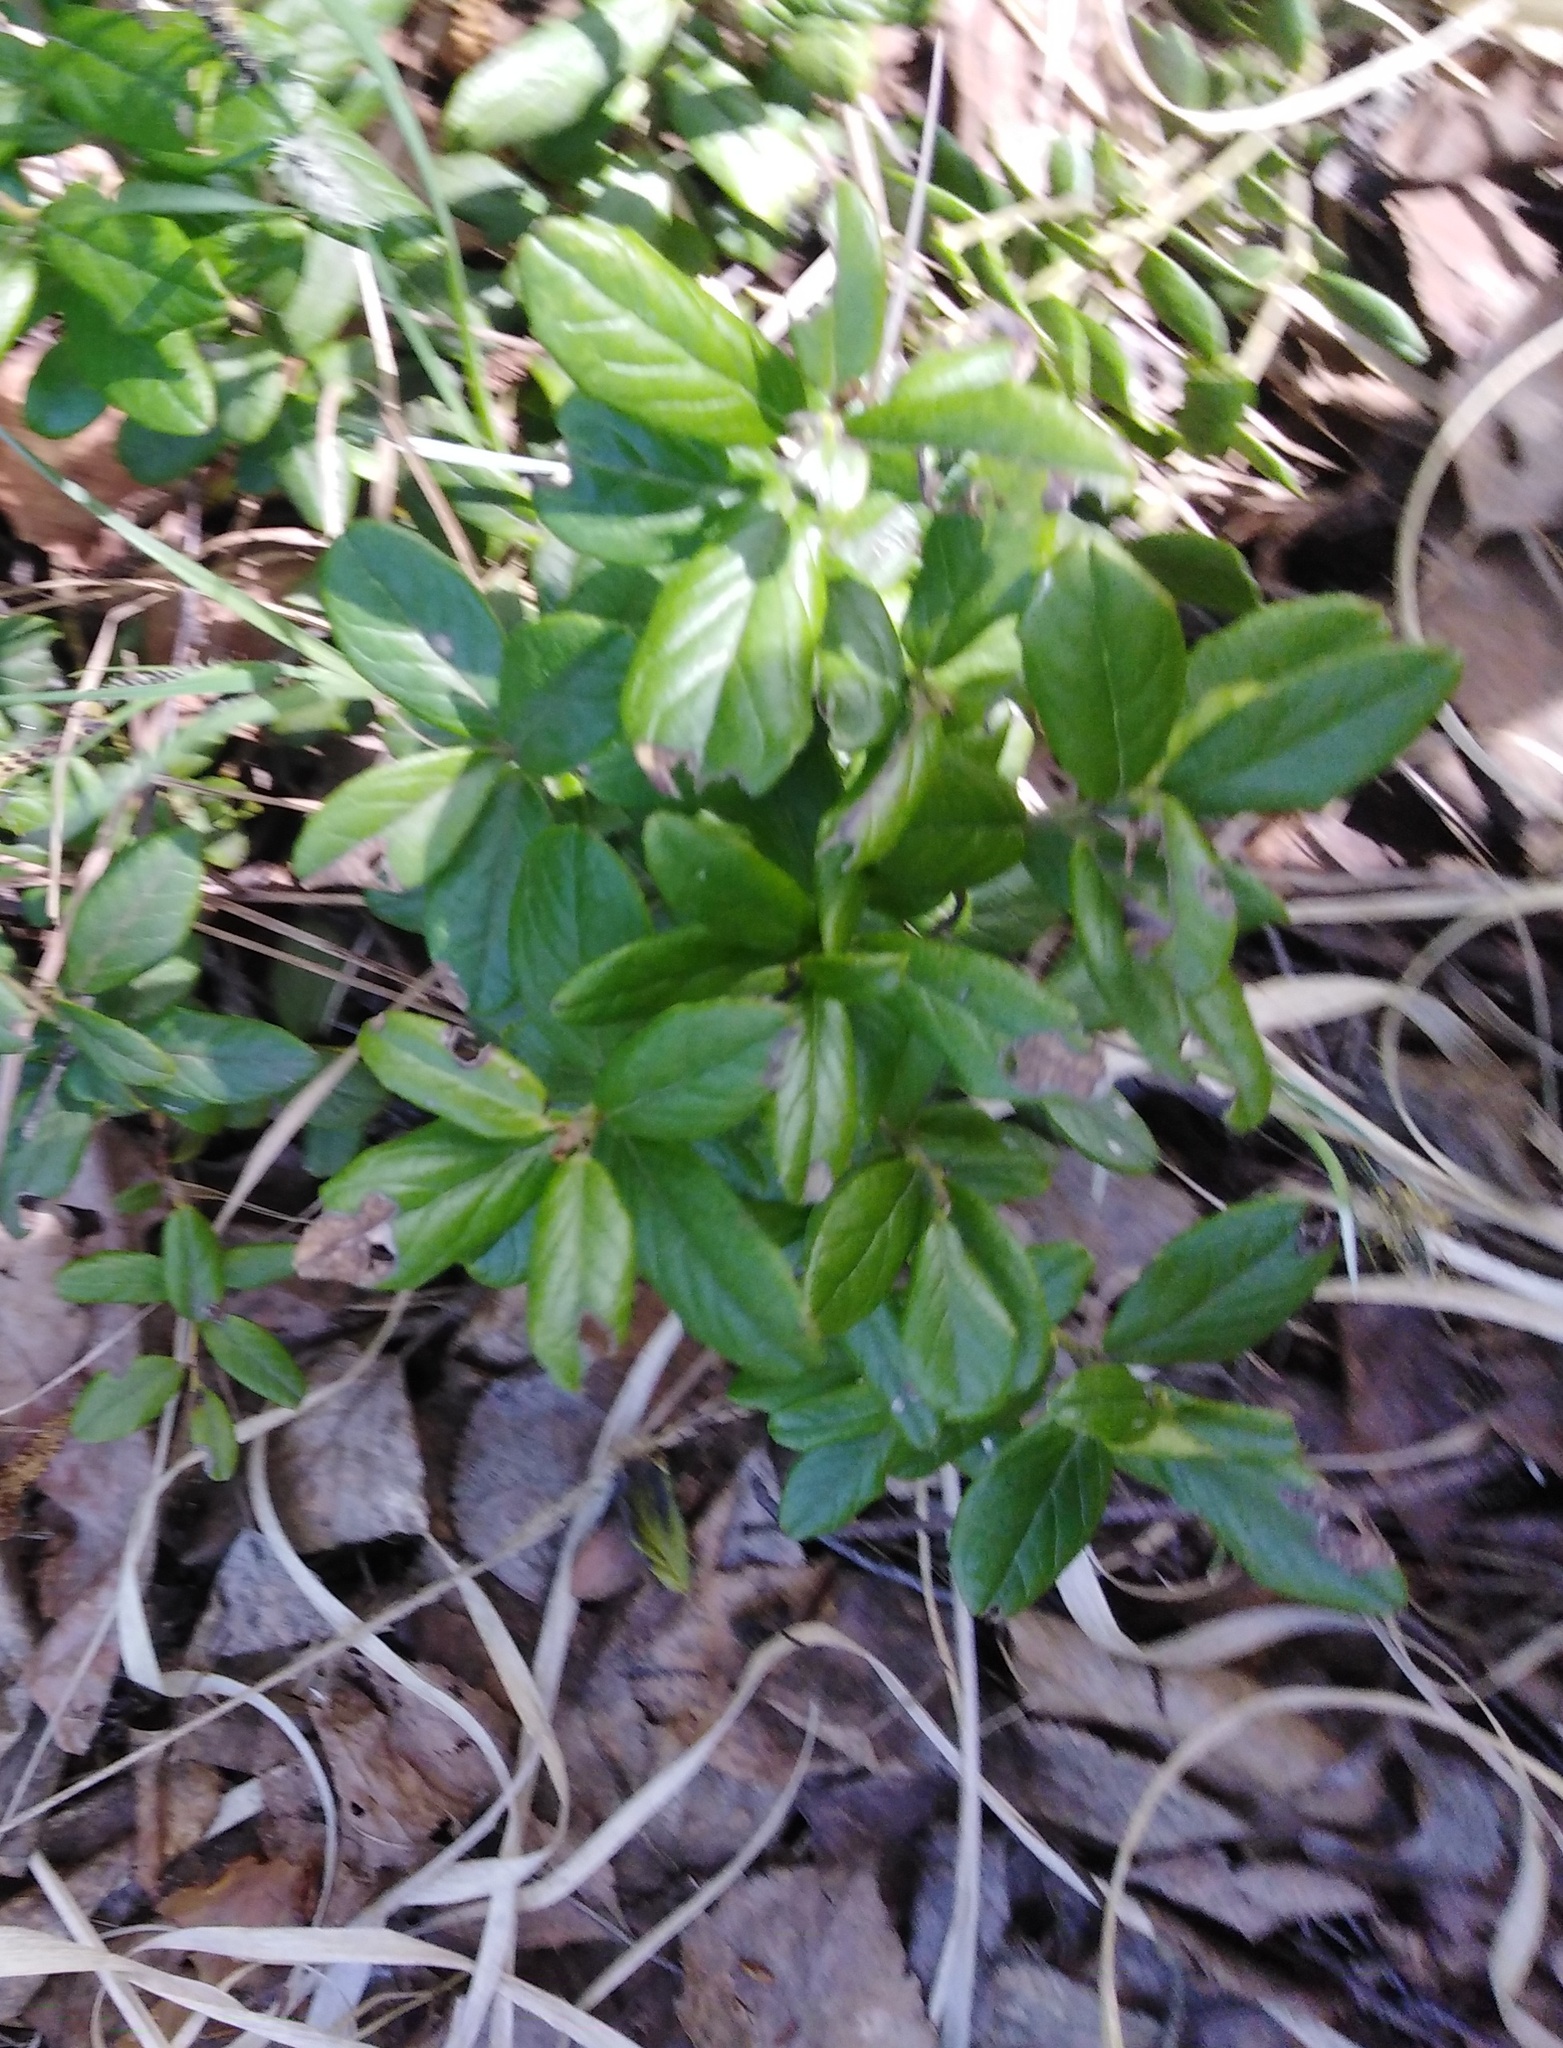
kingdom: Plantae
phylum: Tracheophyta
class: Magnoliopsida
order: Ericales
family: Ericaceae
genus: Vaccinium
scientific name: Vaccinium vitis-idaea
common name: Cowberry
